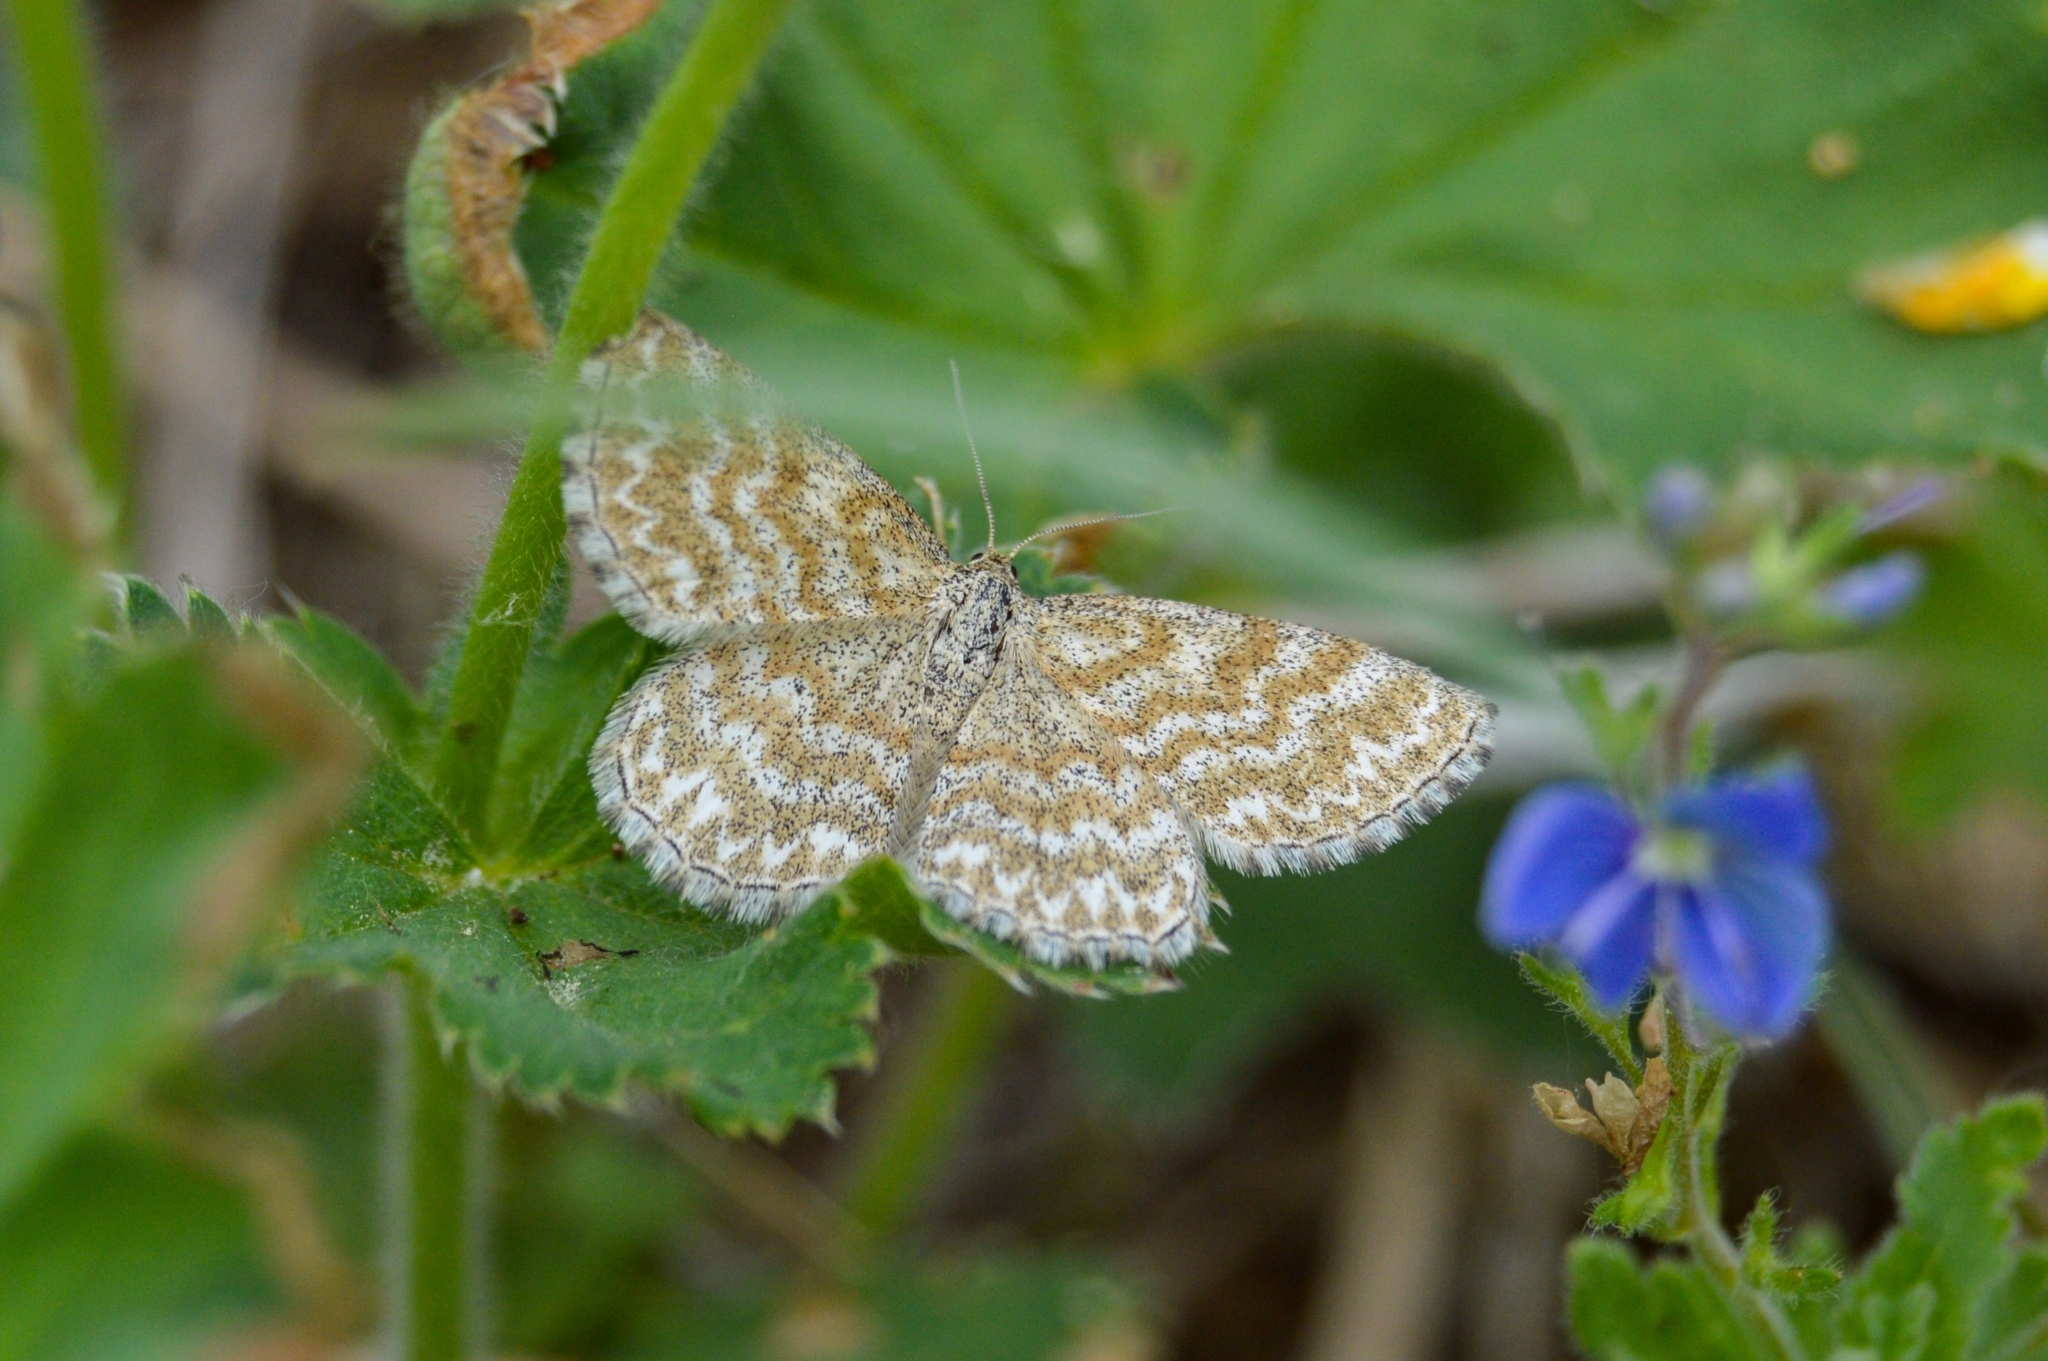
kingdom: Animalia
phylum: Arthropoda
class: Insecta
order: Lepidoptera
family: Geometridae
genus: Scopula
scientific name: Scopula immorata
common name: Lewes wave
